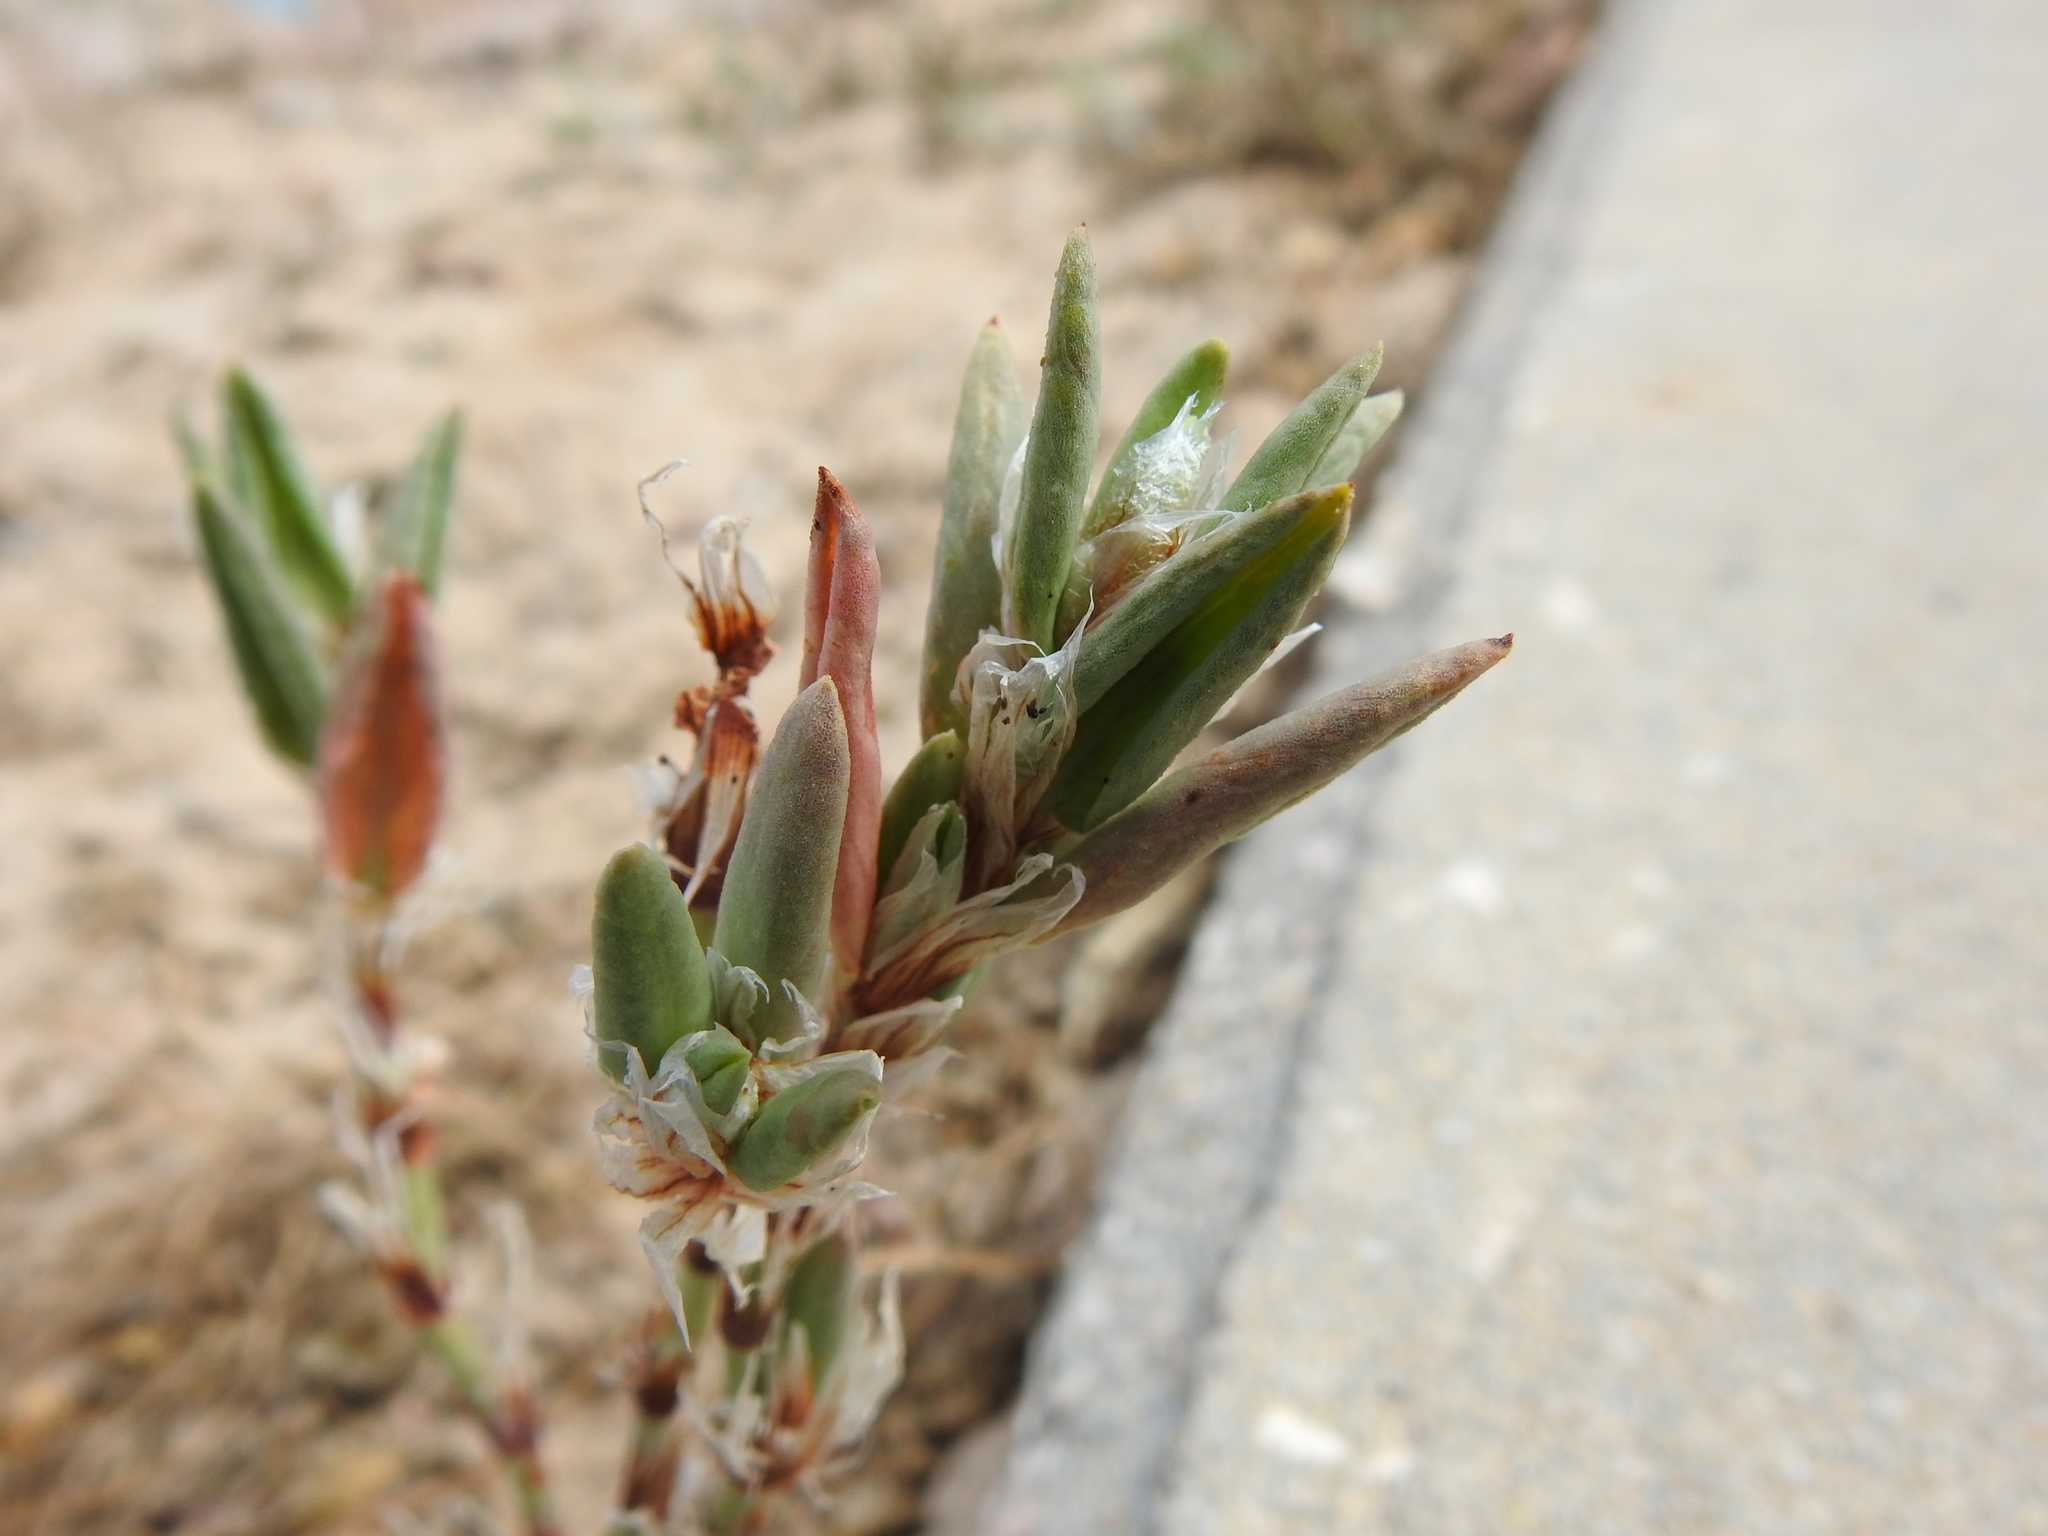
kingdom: Plantae
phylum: Tracheophyta
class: Magnoliopsida
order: Caryophyllales
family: Polygonaceae
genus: Polygonum
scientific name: Polygonum maritimum
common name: Sea knotgrass
